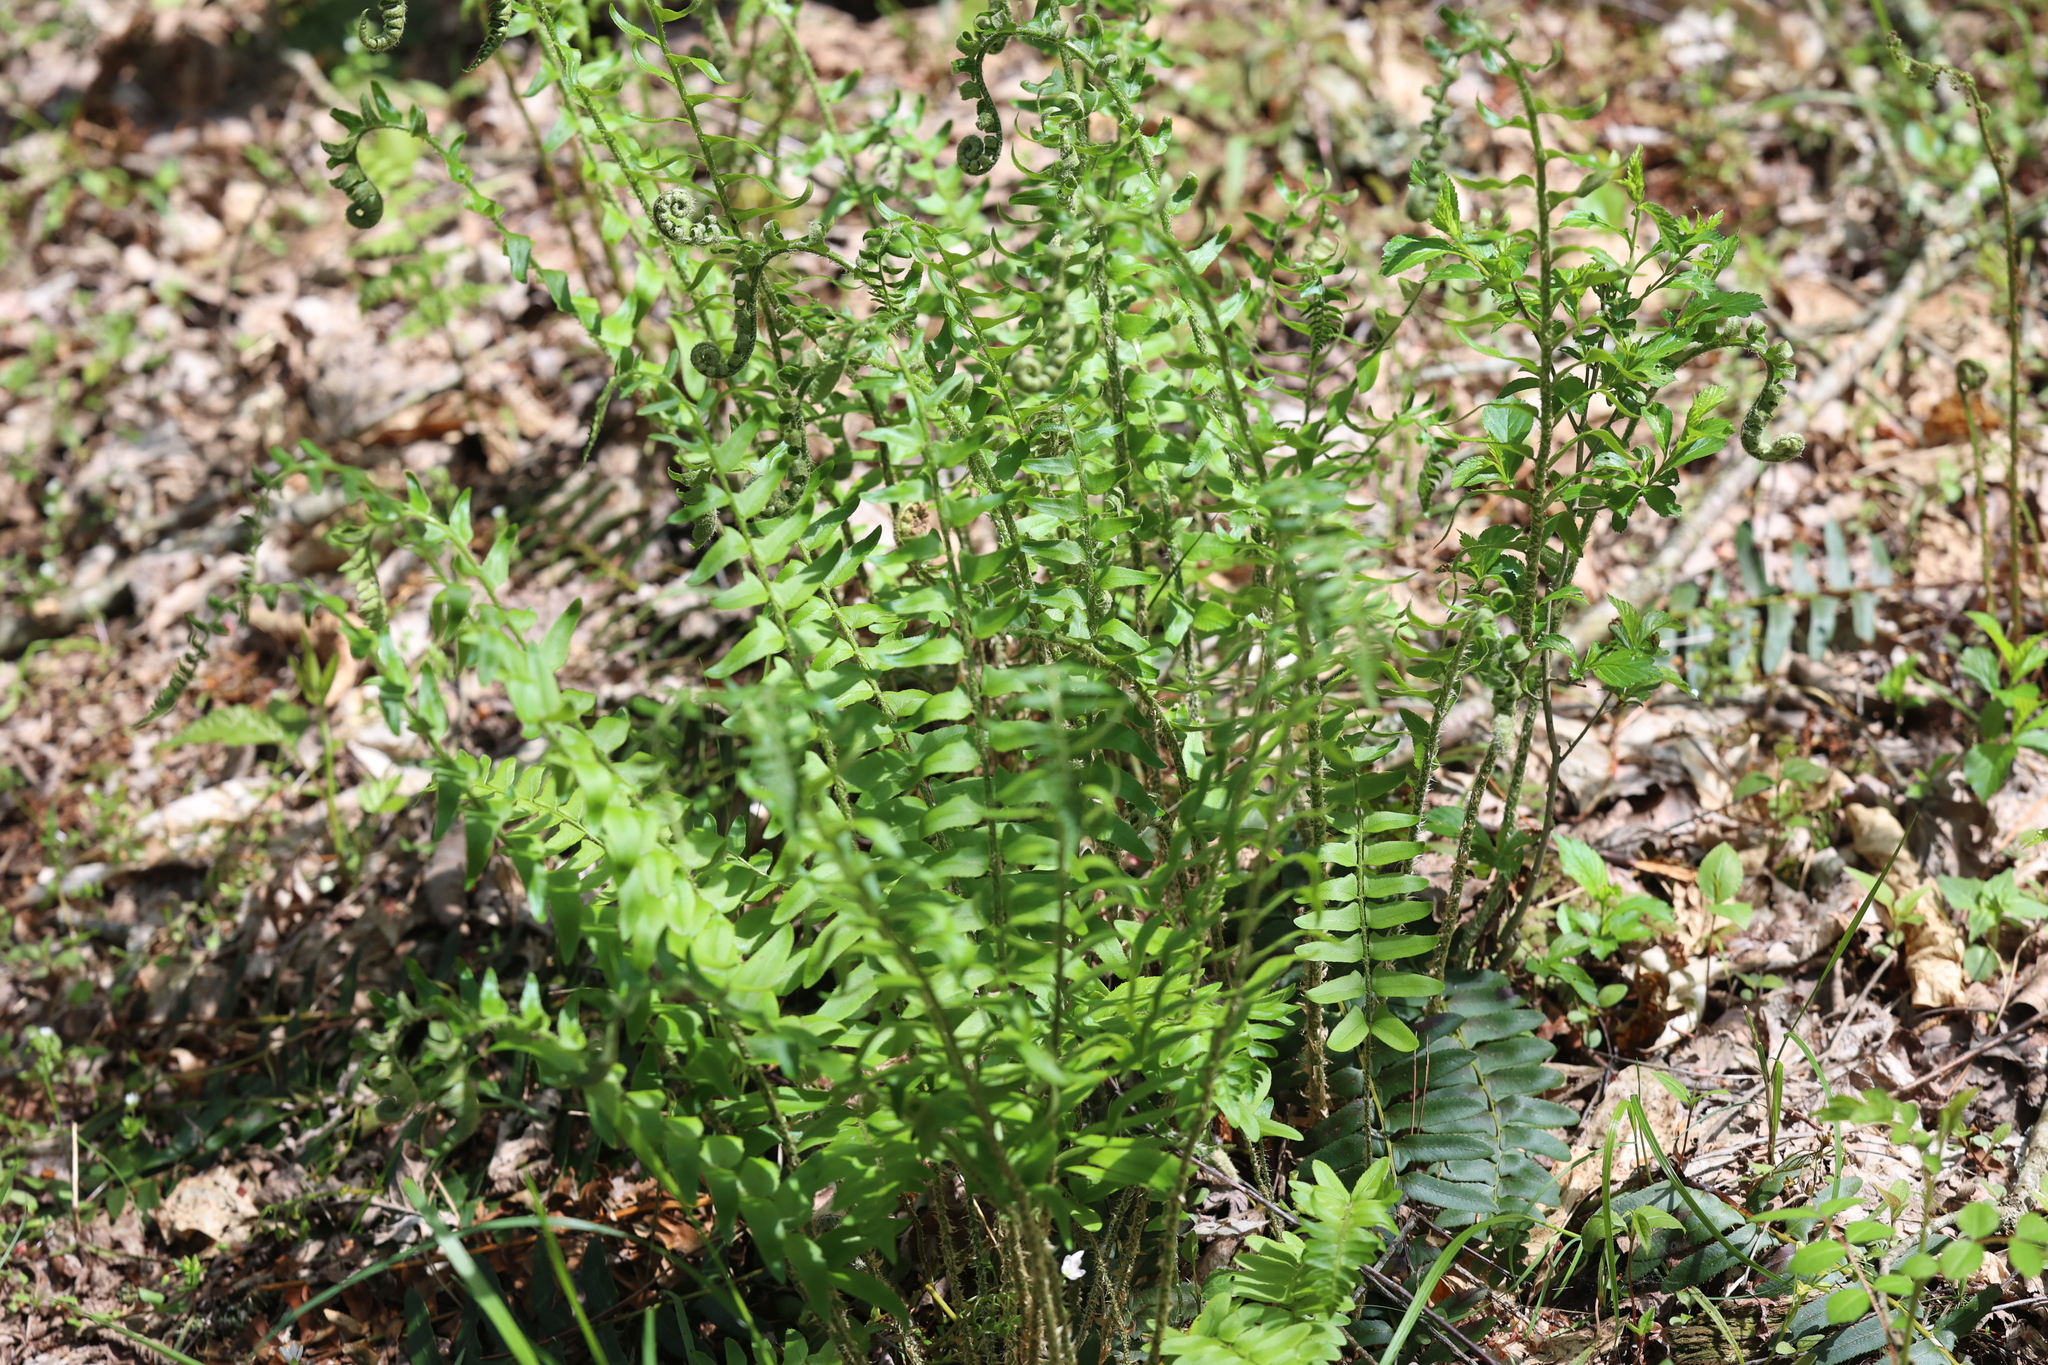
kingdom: Plantae
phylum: Tracheophyta
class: Polypodiopsida
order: Polypodiales
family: Dryopteridaceae
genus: Polystichum
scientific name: Polystichum acrostichoides
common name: Christmas fern
